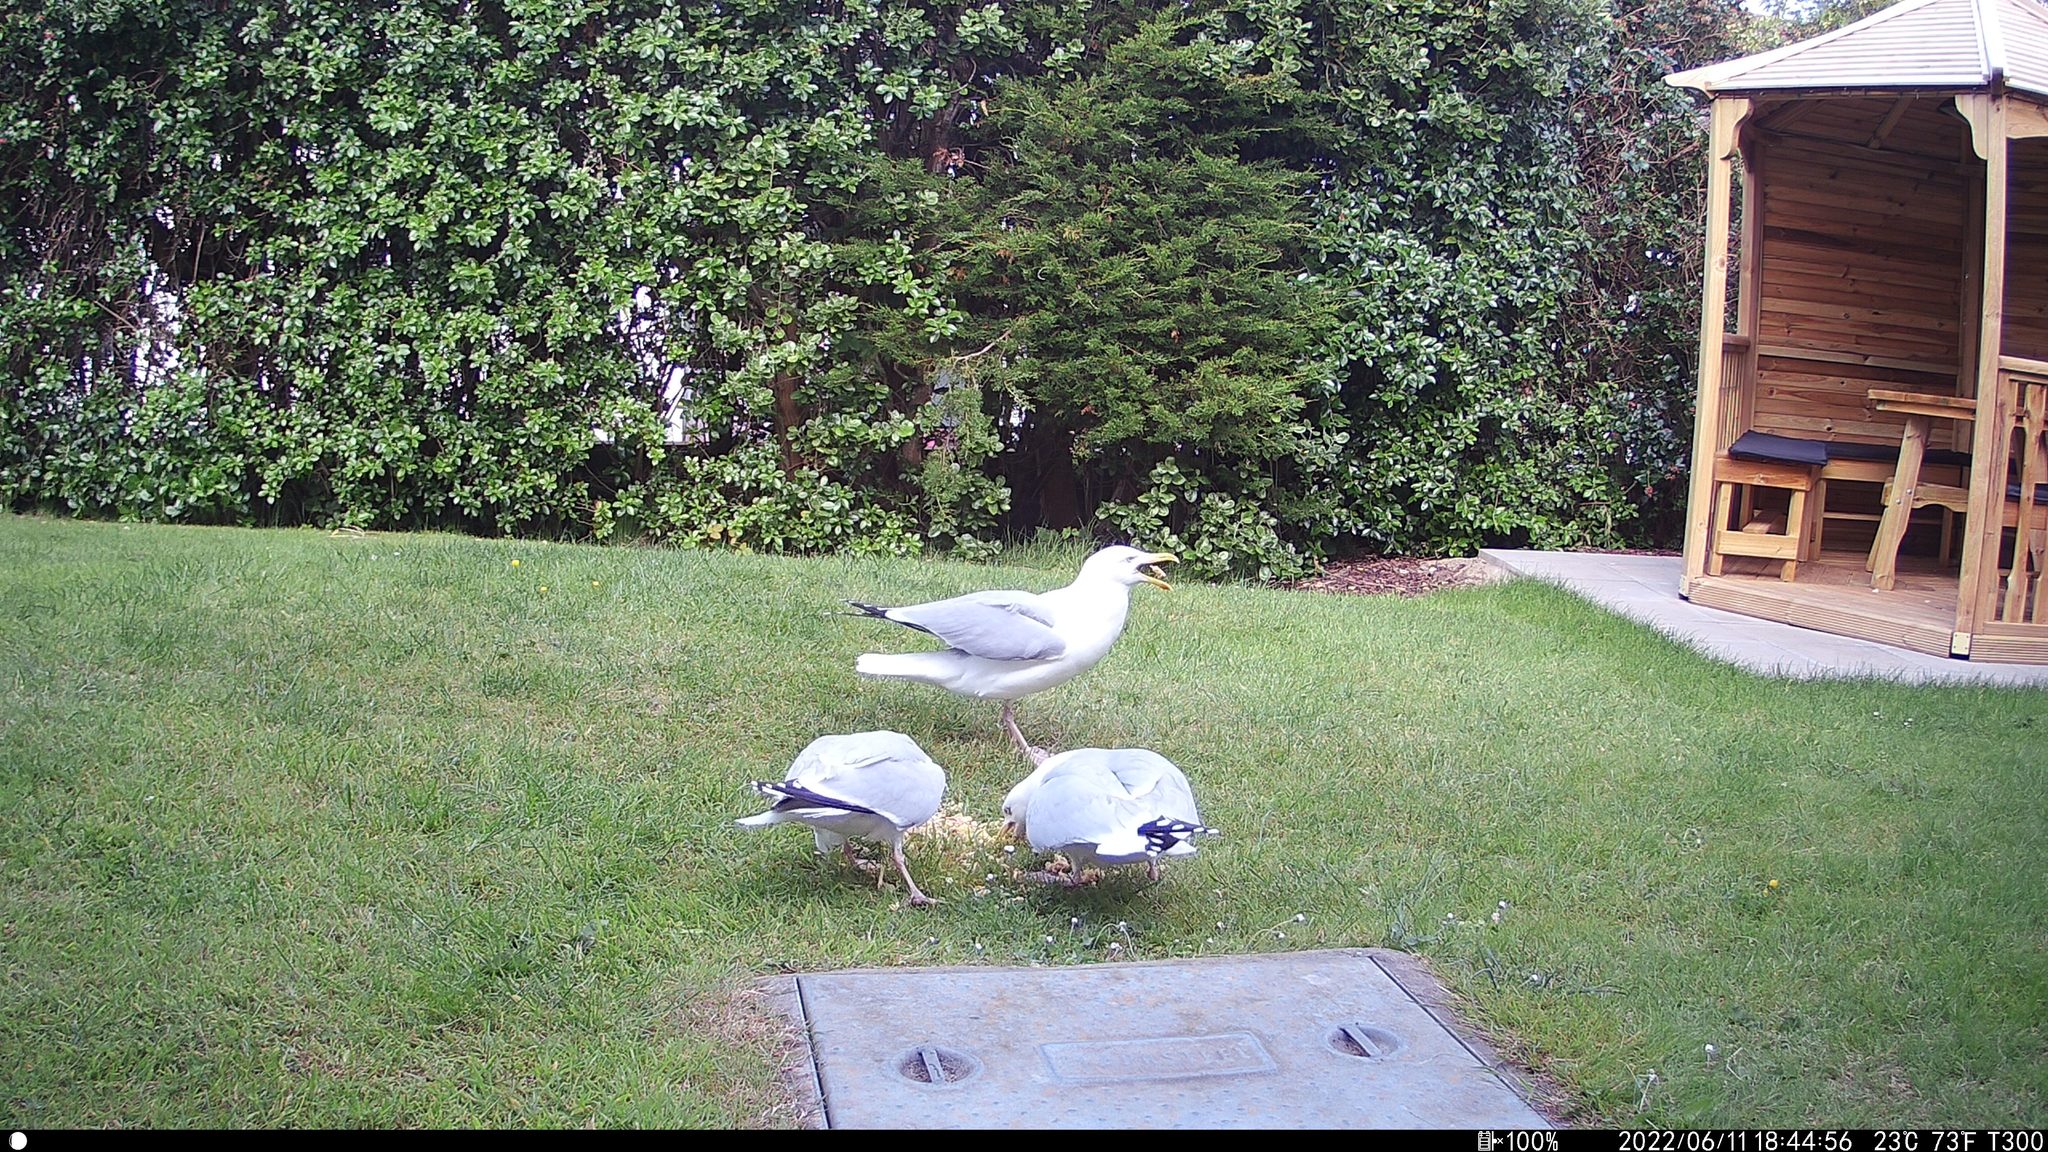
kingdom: Animalia
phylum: Chordata
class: Aves
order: Charadriiformes
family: Laridae
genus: Larus
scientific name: Larus argentatus
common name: Herring gull
